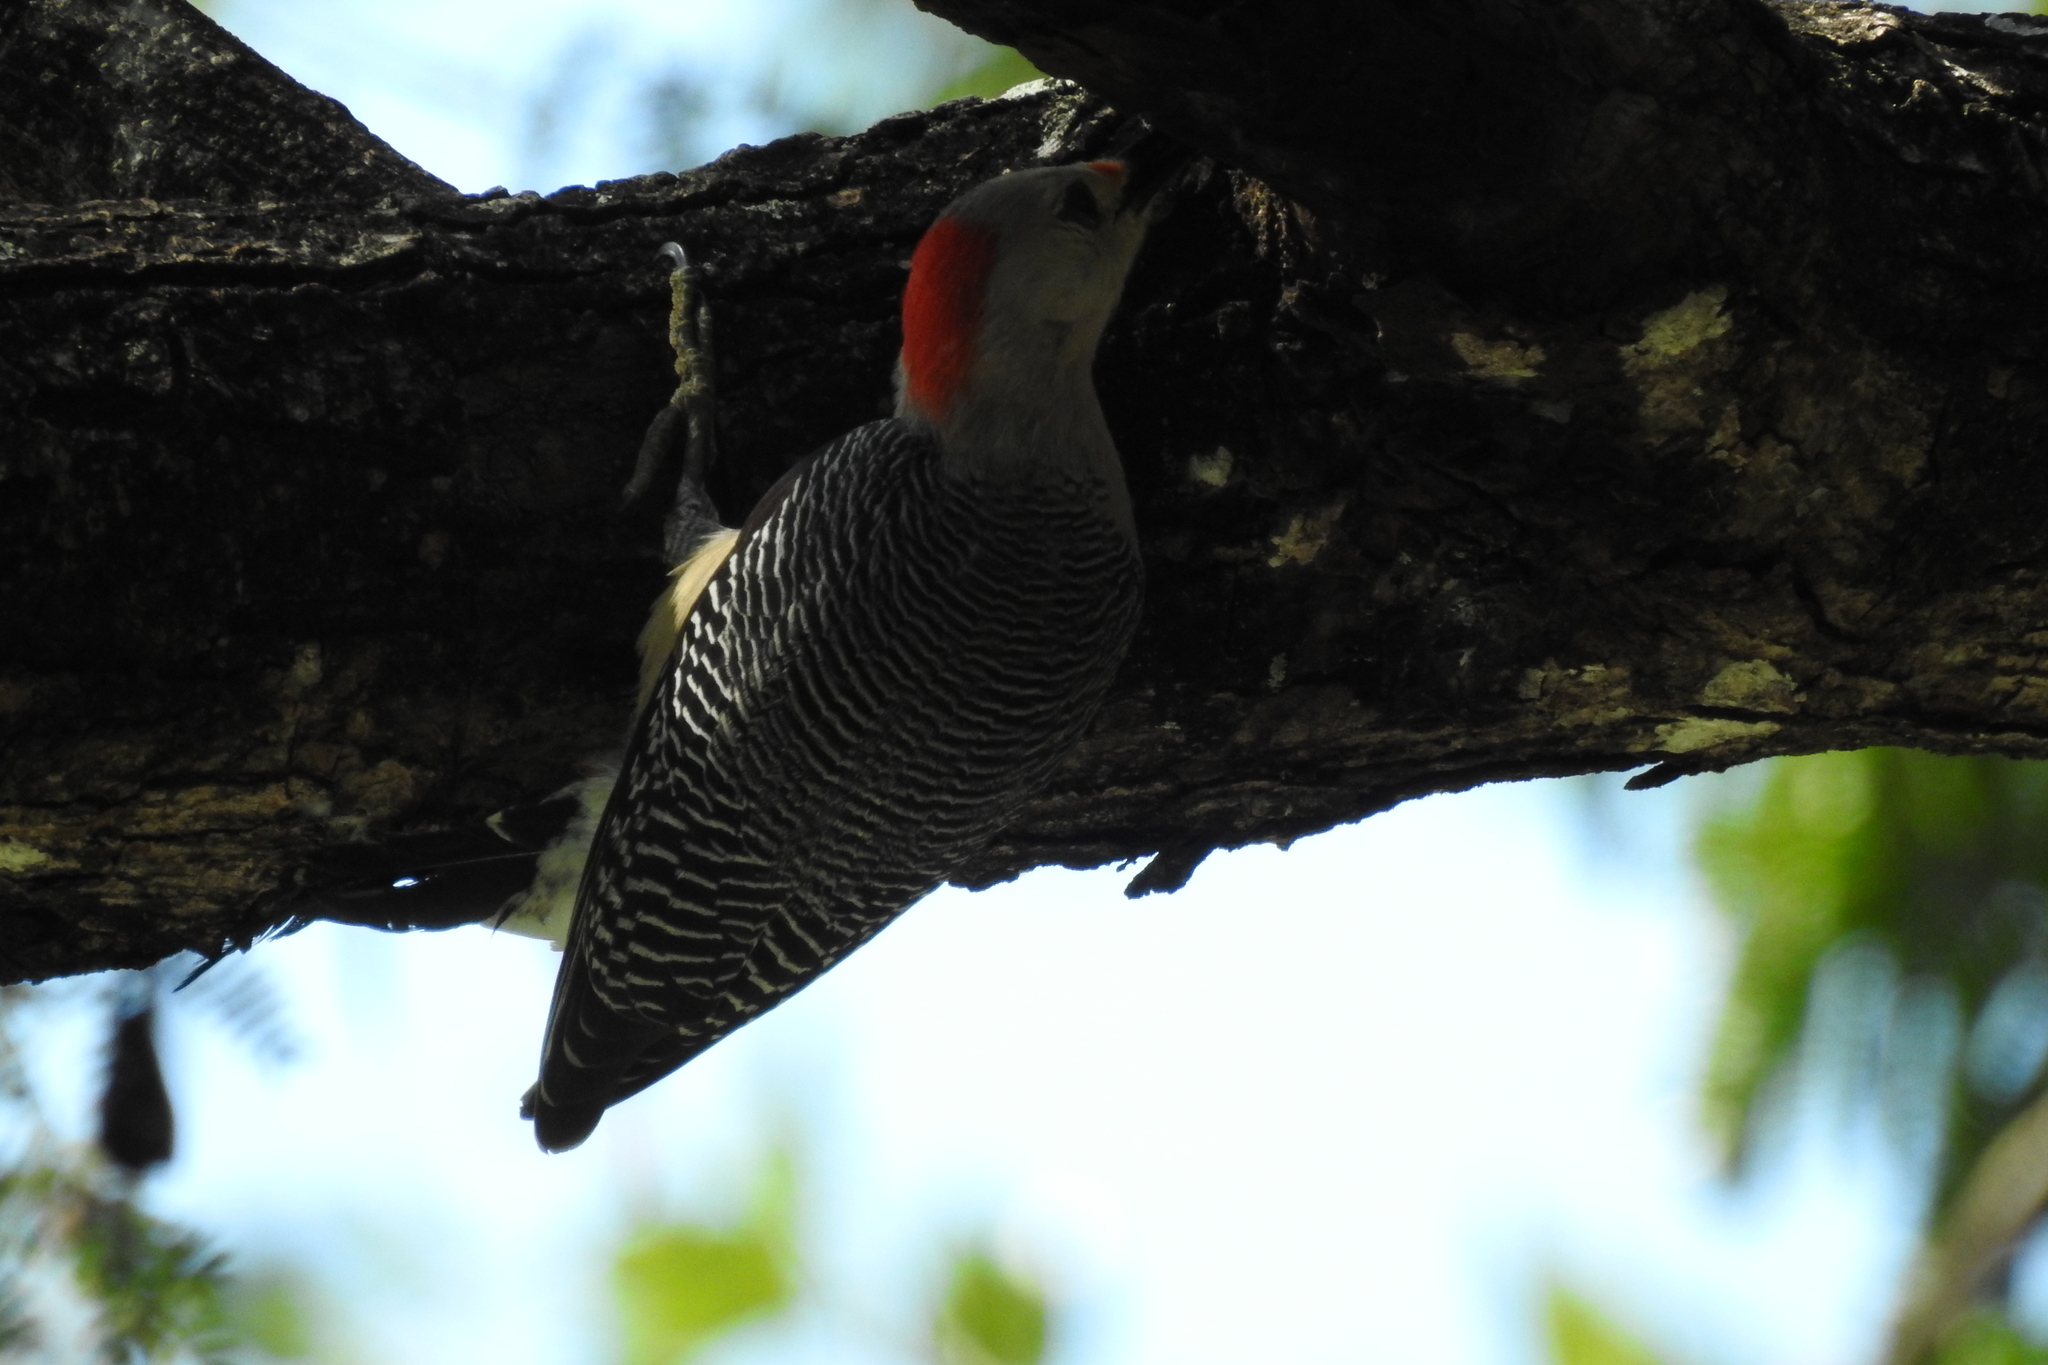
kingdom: Animalia
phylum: Chordata
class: Aves
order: Piciformes
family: Picidae
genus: Melanerpes
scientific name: Melanerpes aurifrons
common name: Golden-fronted woodpecker
